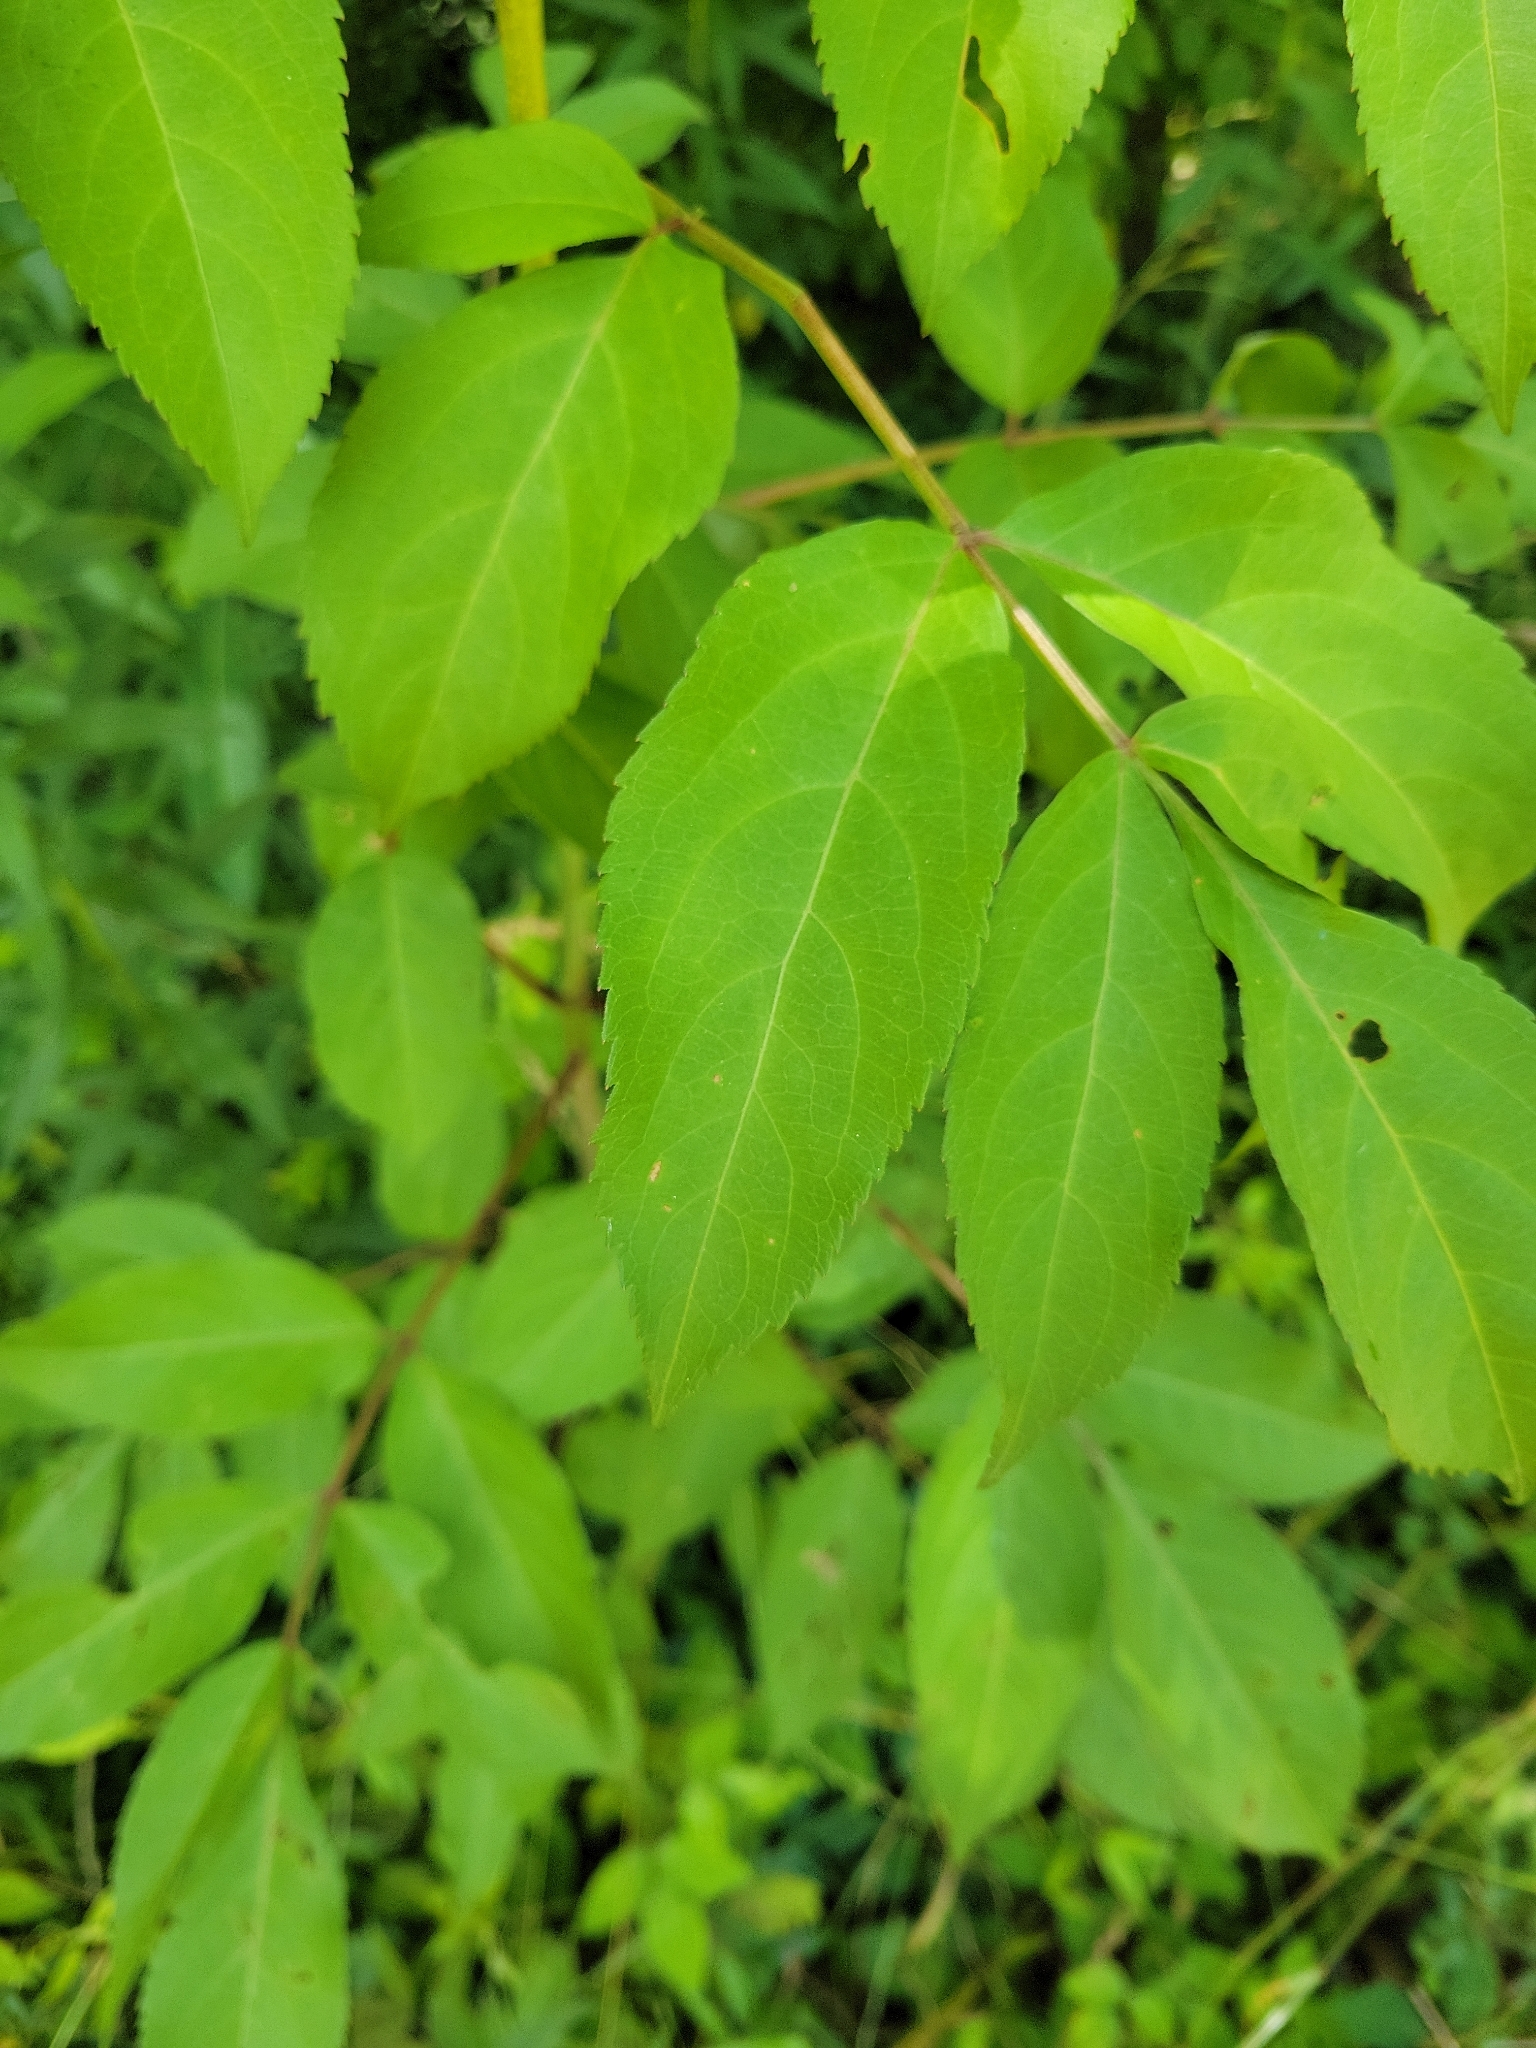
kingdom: Plantae
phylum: Tracheophyta
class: Magnoliopsida
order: Dipsacales
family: Viburnaceae
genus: Sambucus
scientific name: Sambucus canadensis
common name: American elder
